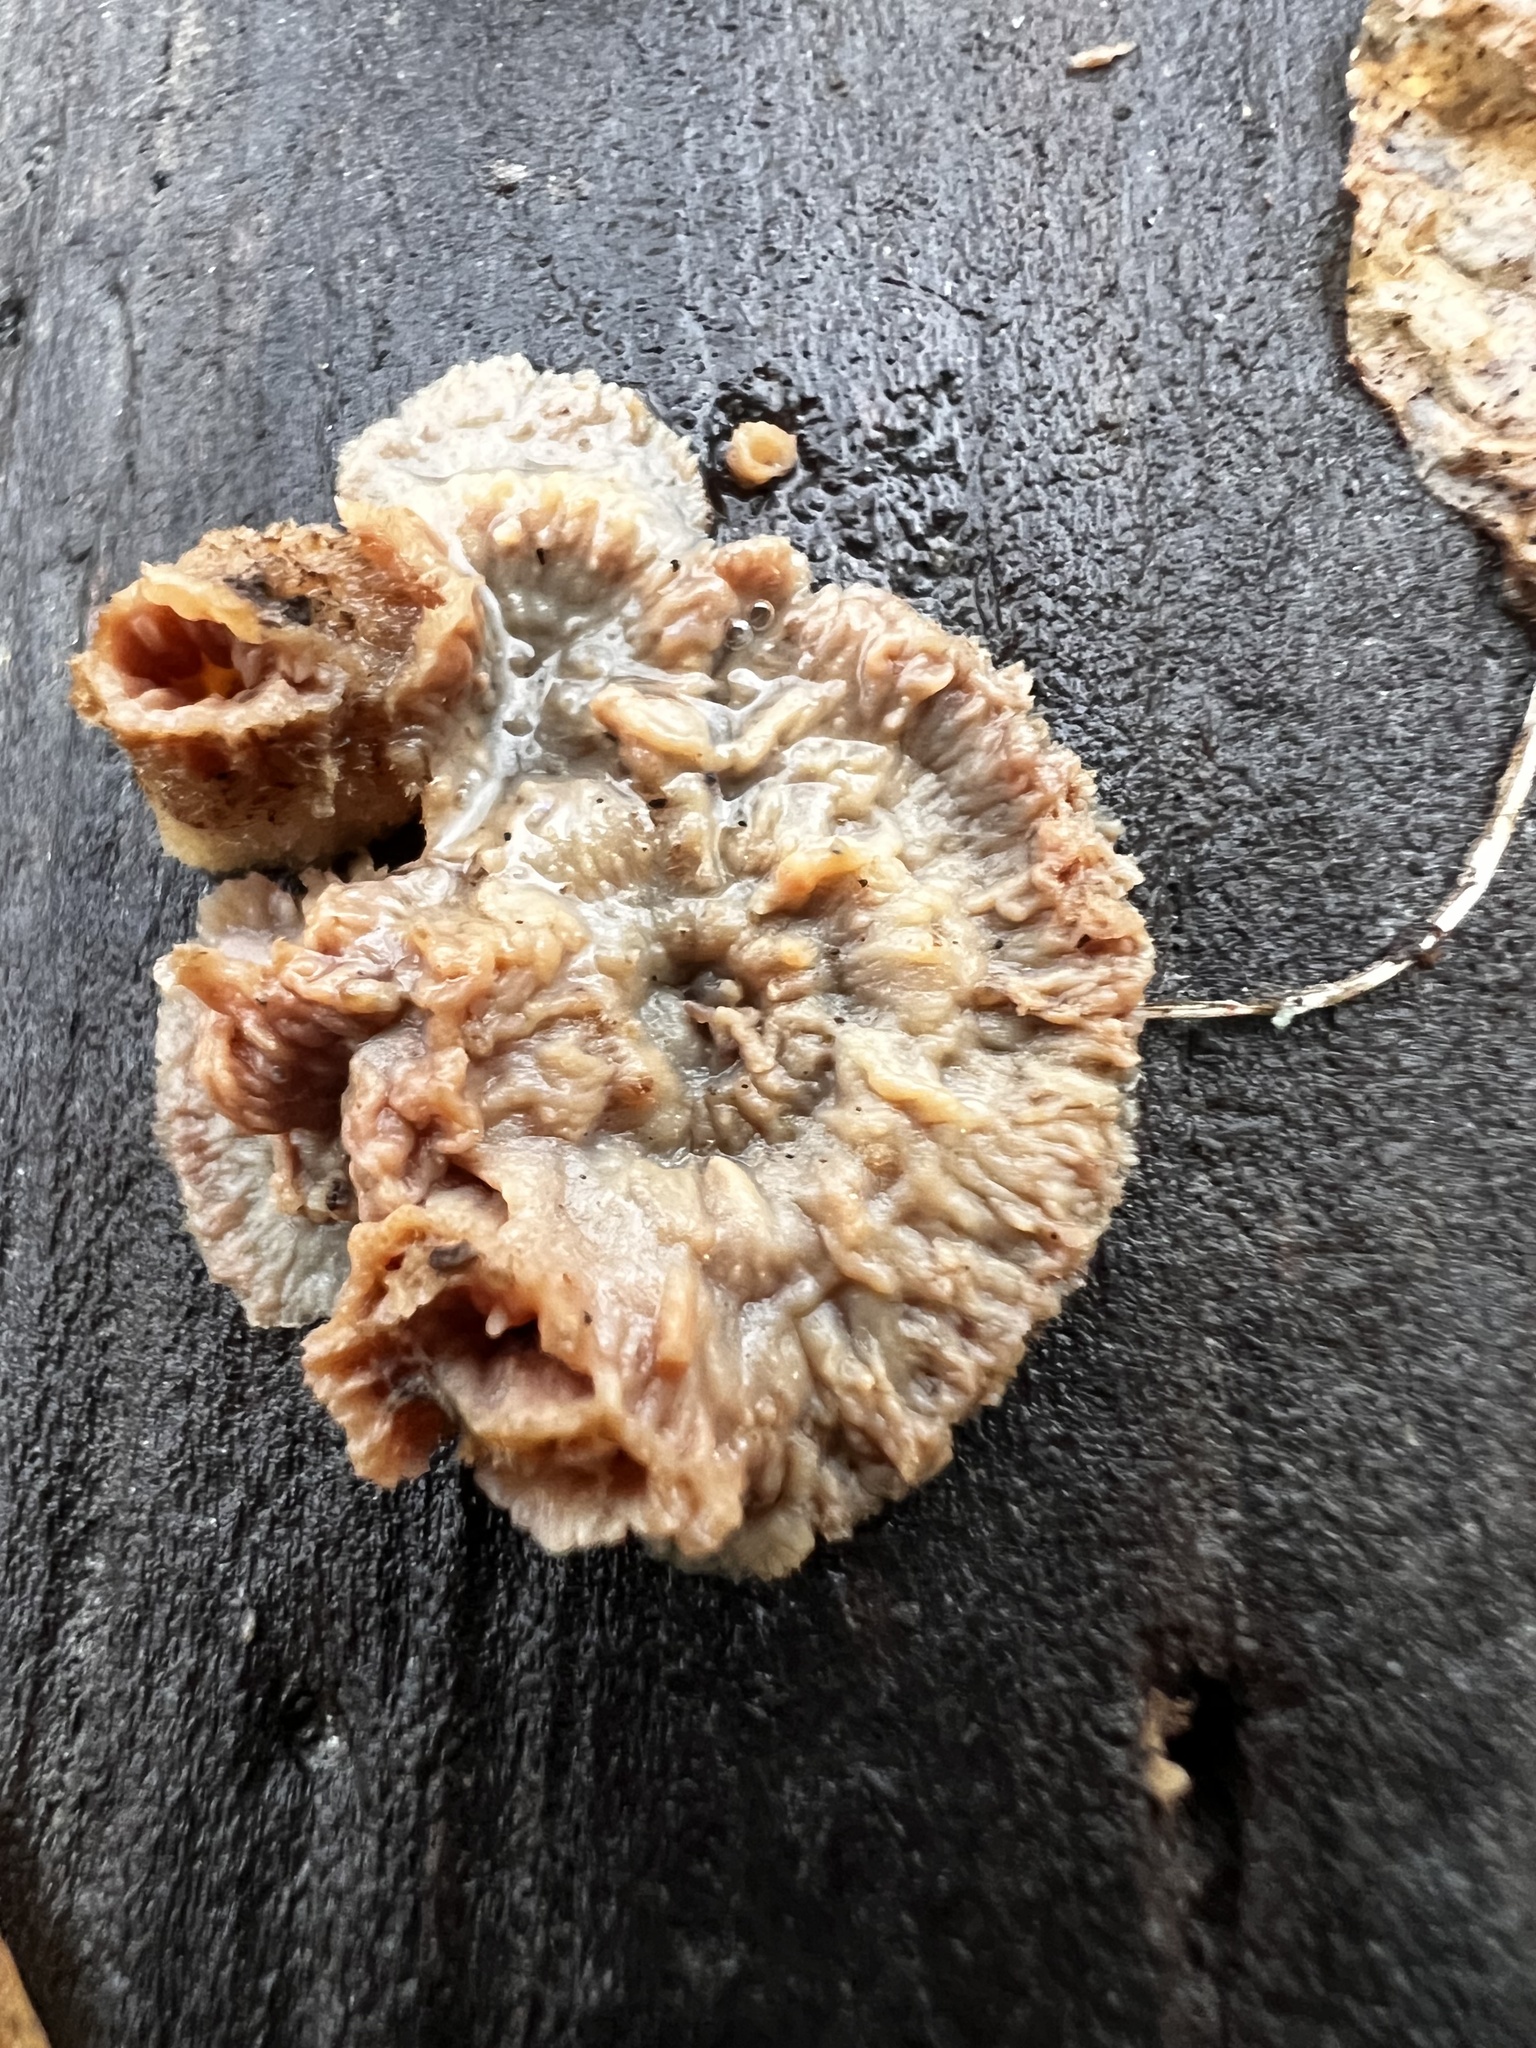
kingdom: Fungi
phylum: Basidiomycota
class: Agaricomycetes
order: Polyporales
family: Meruliaceae
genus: Phlebia
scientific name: Phlebia radiata
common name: Wrinkled crust
